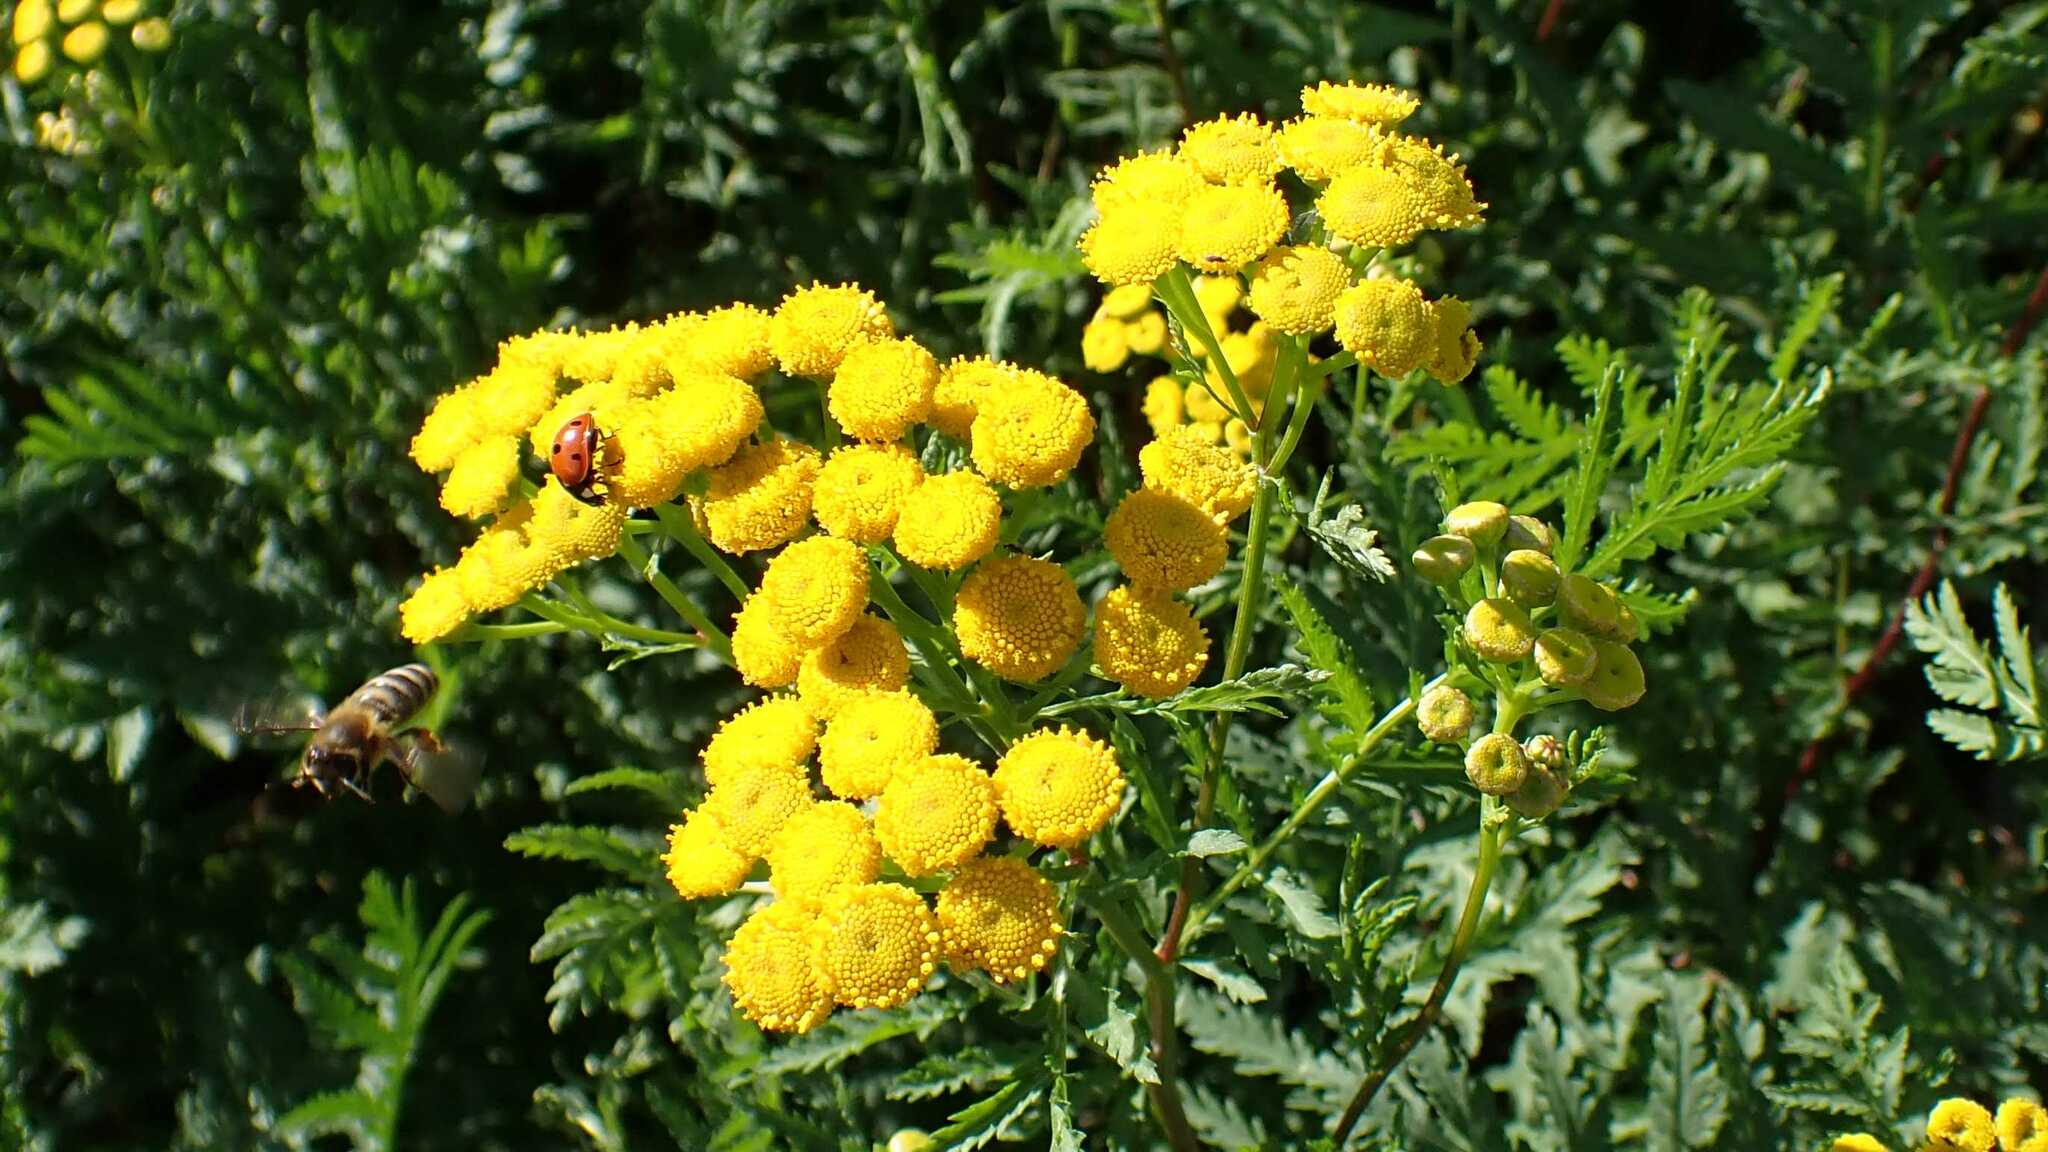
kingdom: Plantae
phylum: Tracheophyta
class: Magnoliopsida
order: Asterales
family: Asteraceae
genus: Tanacetum
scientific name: Tanacetum vulgare
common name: Common tansy
